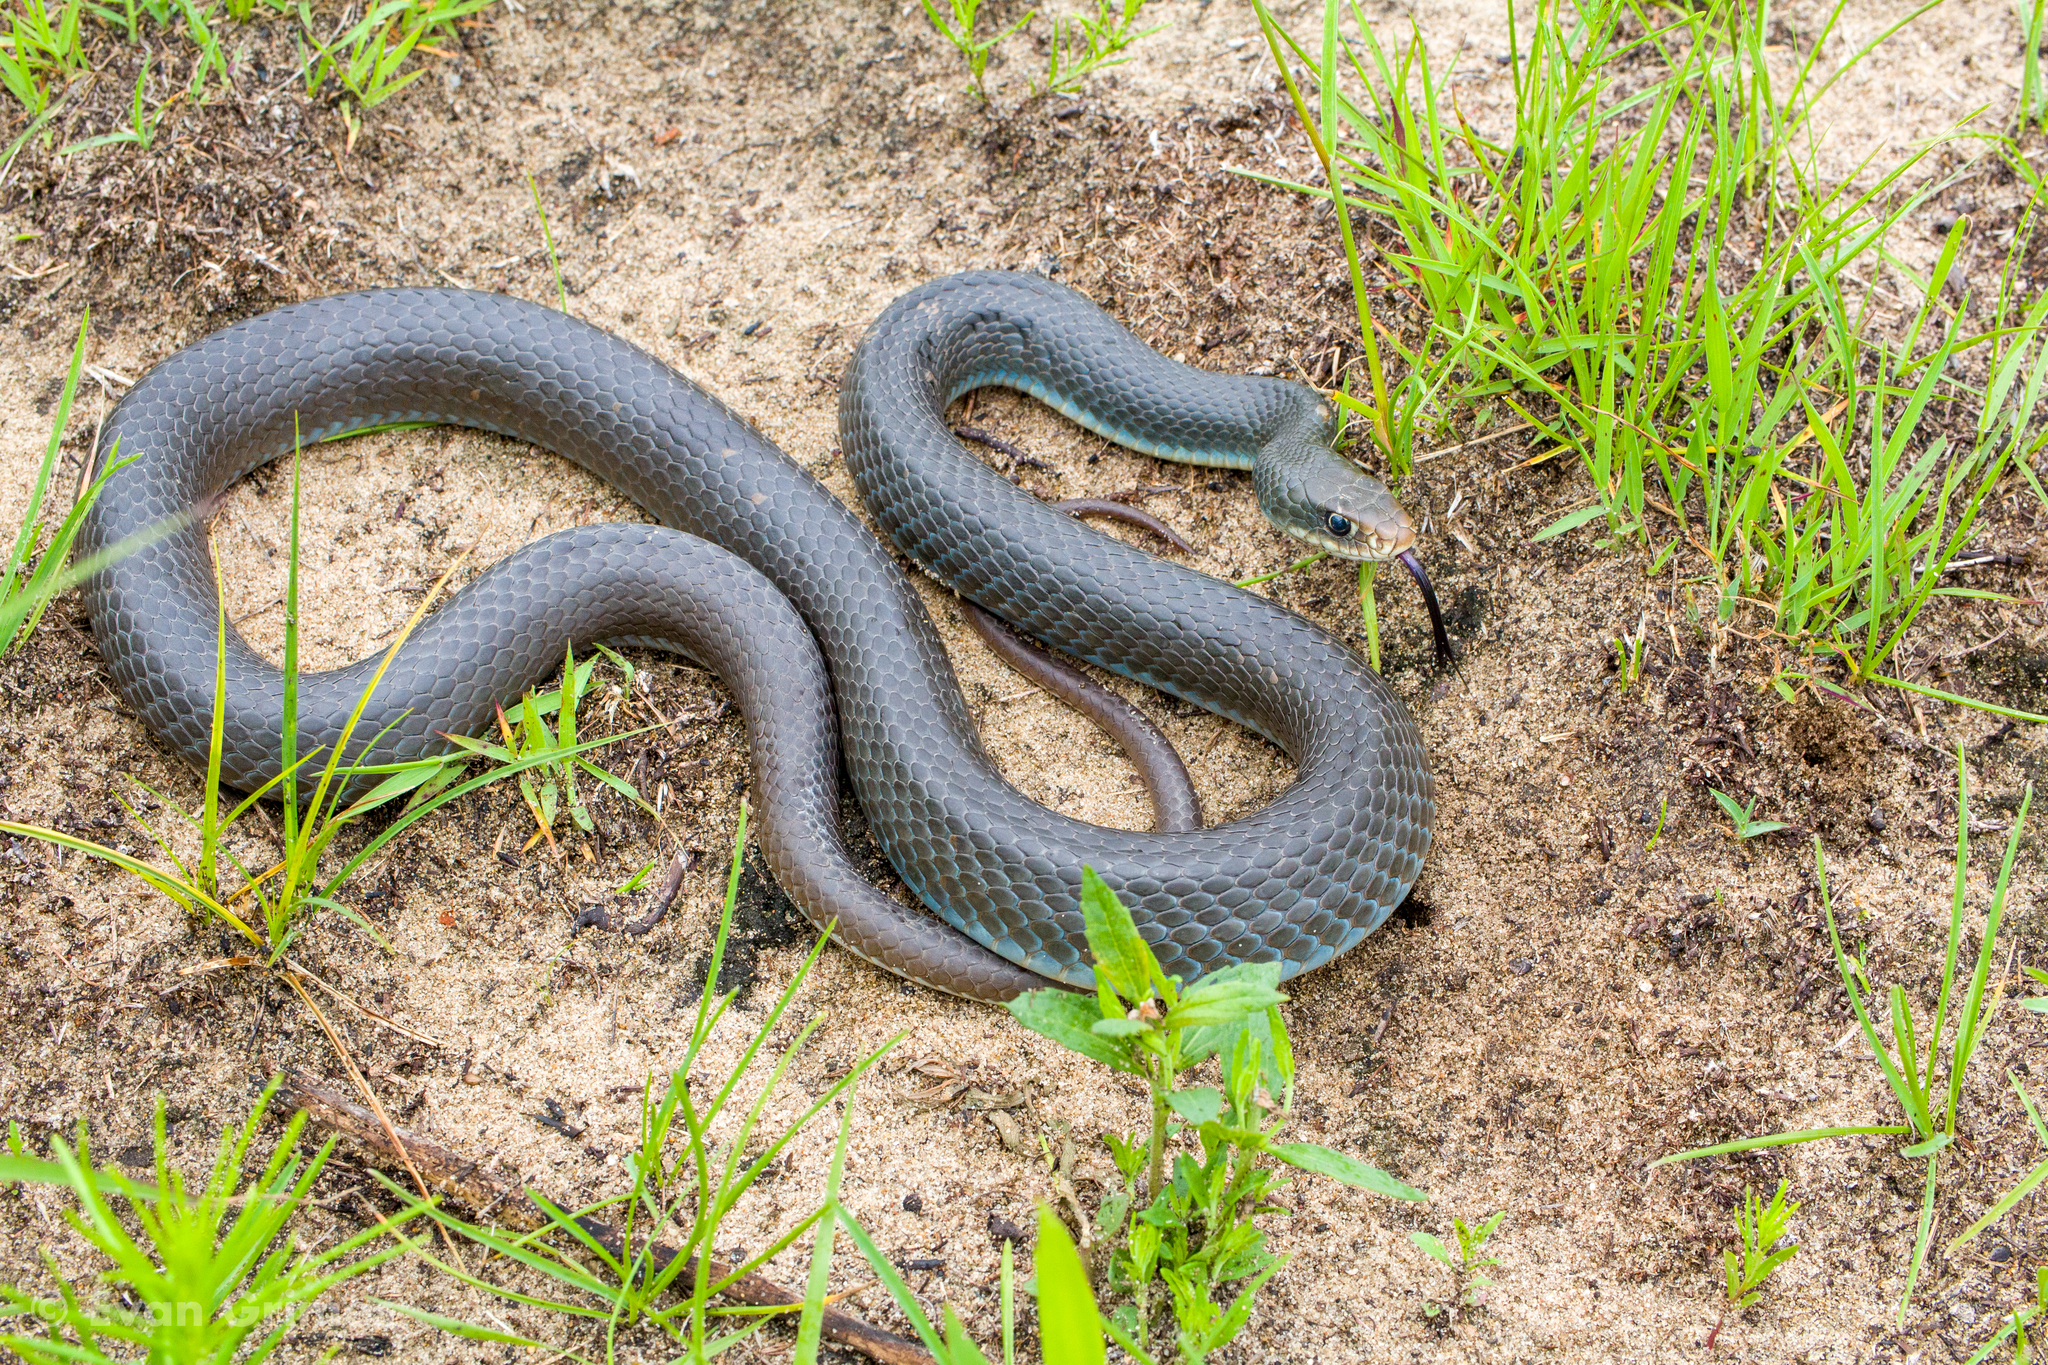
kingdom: Animalia
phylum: Chordata
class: Squamata
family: Colubridae
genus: Coluber
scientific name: Coluber constrictor
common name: Eastern racer
